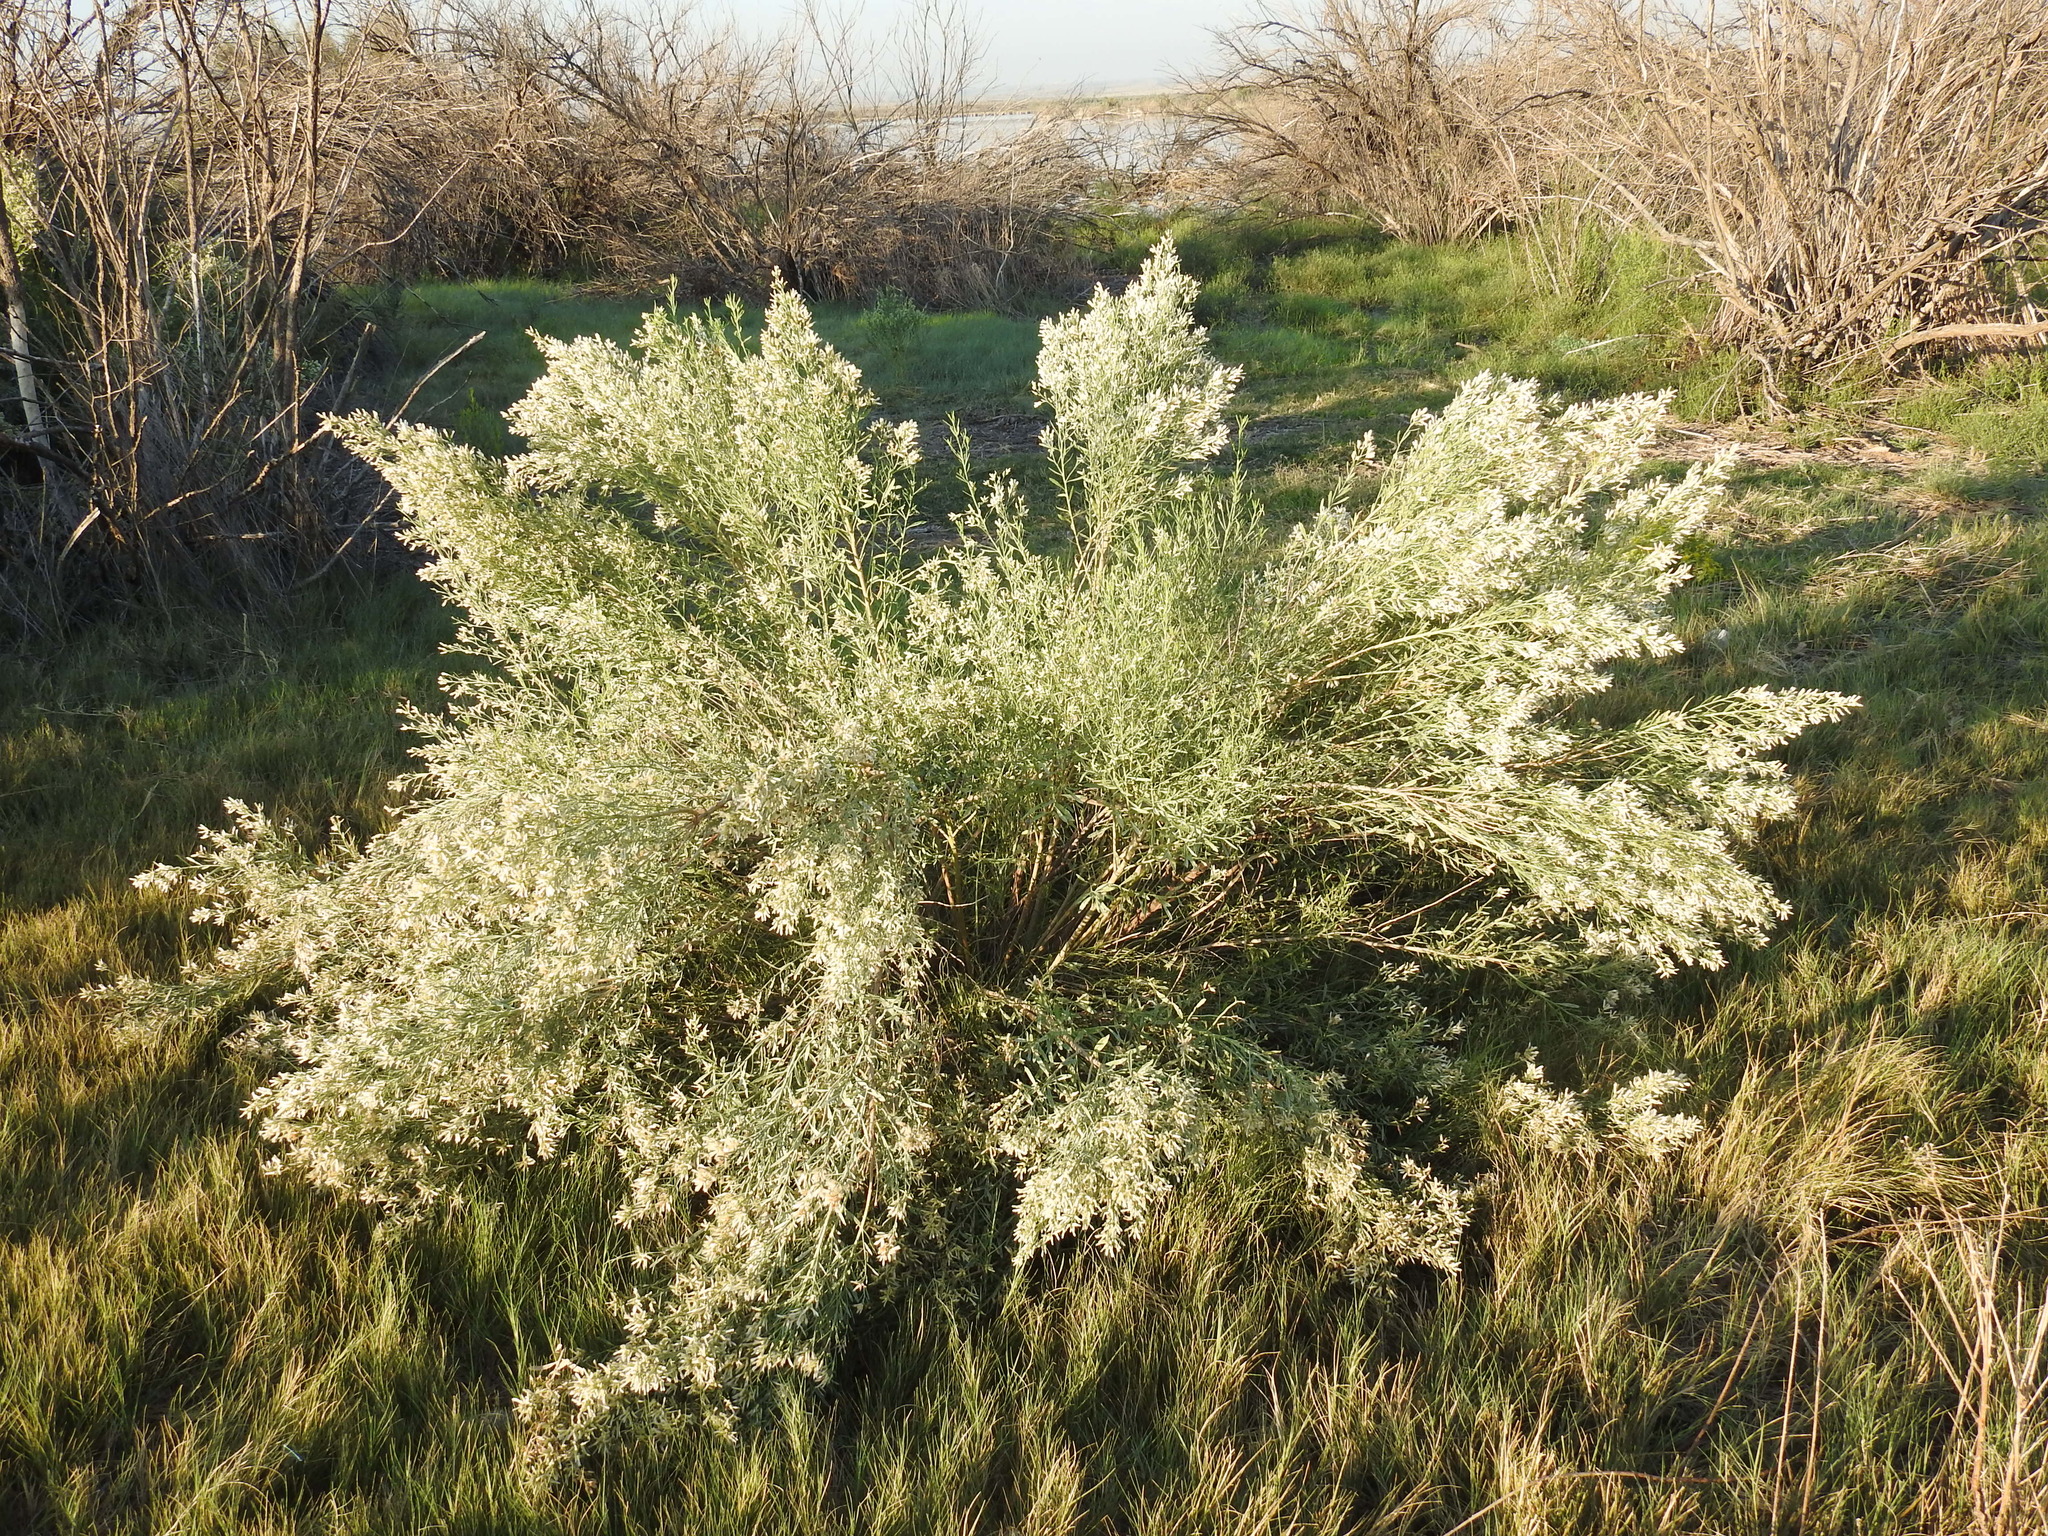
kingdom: Plantae
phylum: Tracheophyta
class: Magnoliopsida
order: Asterales
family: Asteraceae
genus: Baccharis
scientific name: Baccharis salicina
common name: Willow baccharis
